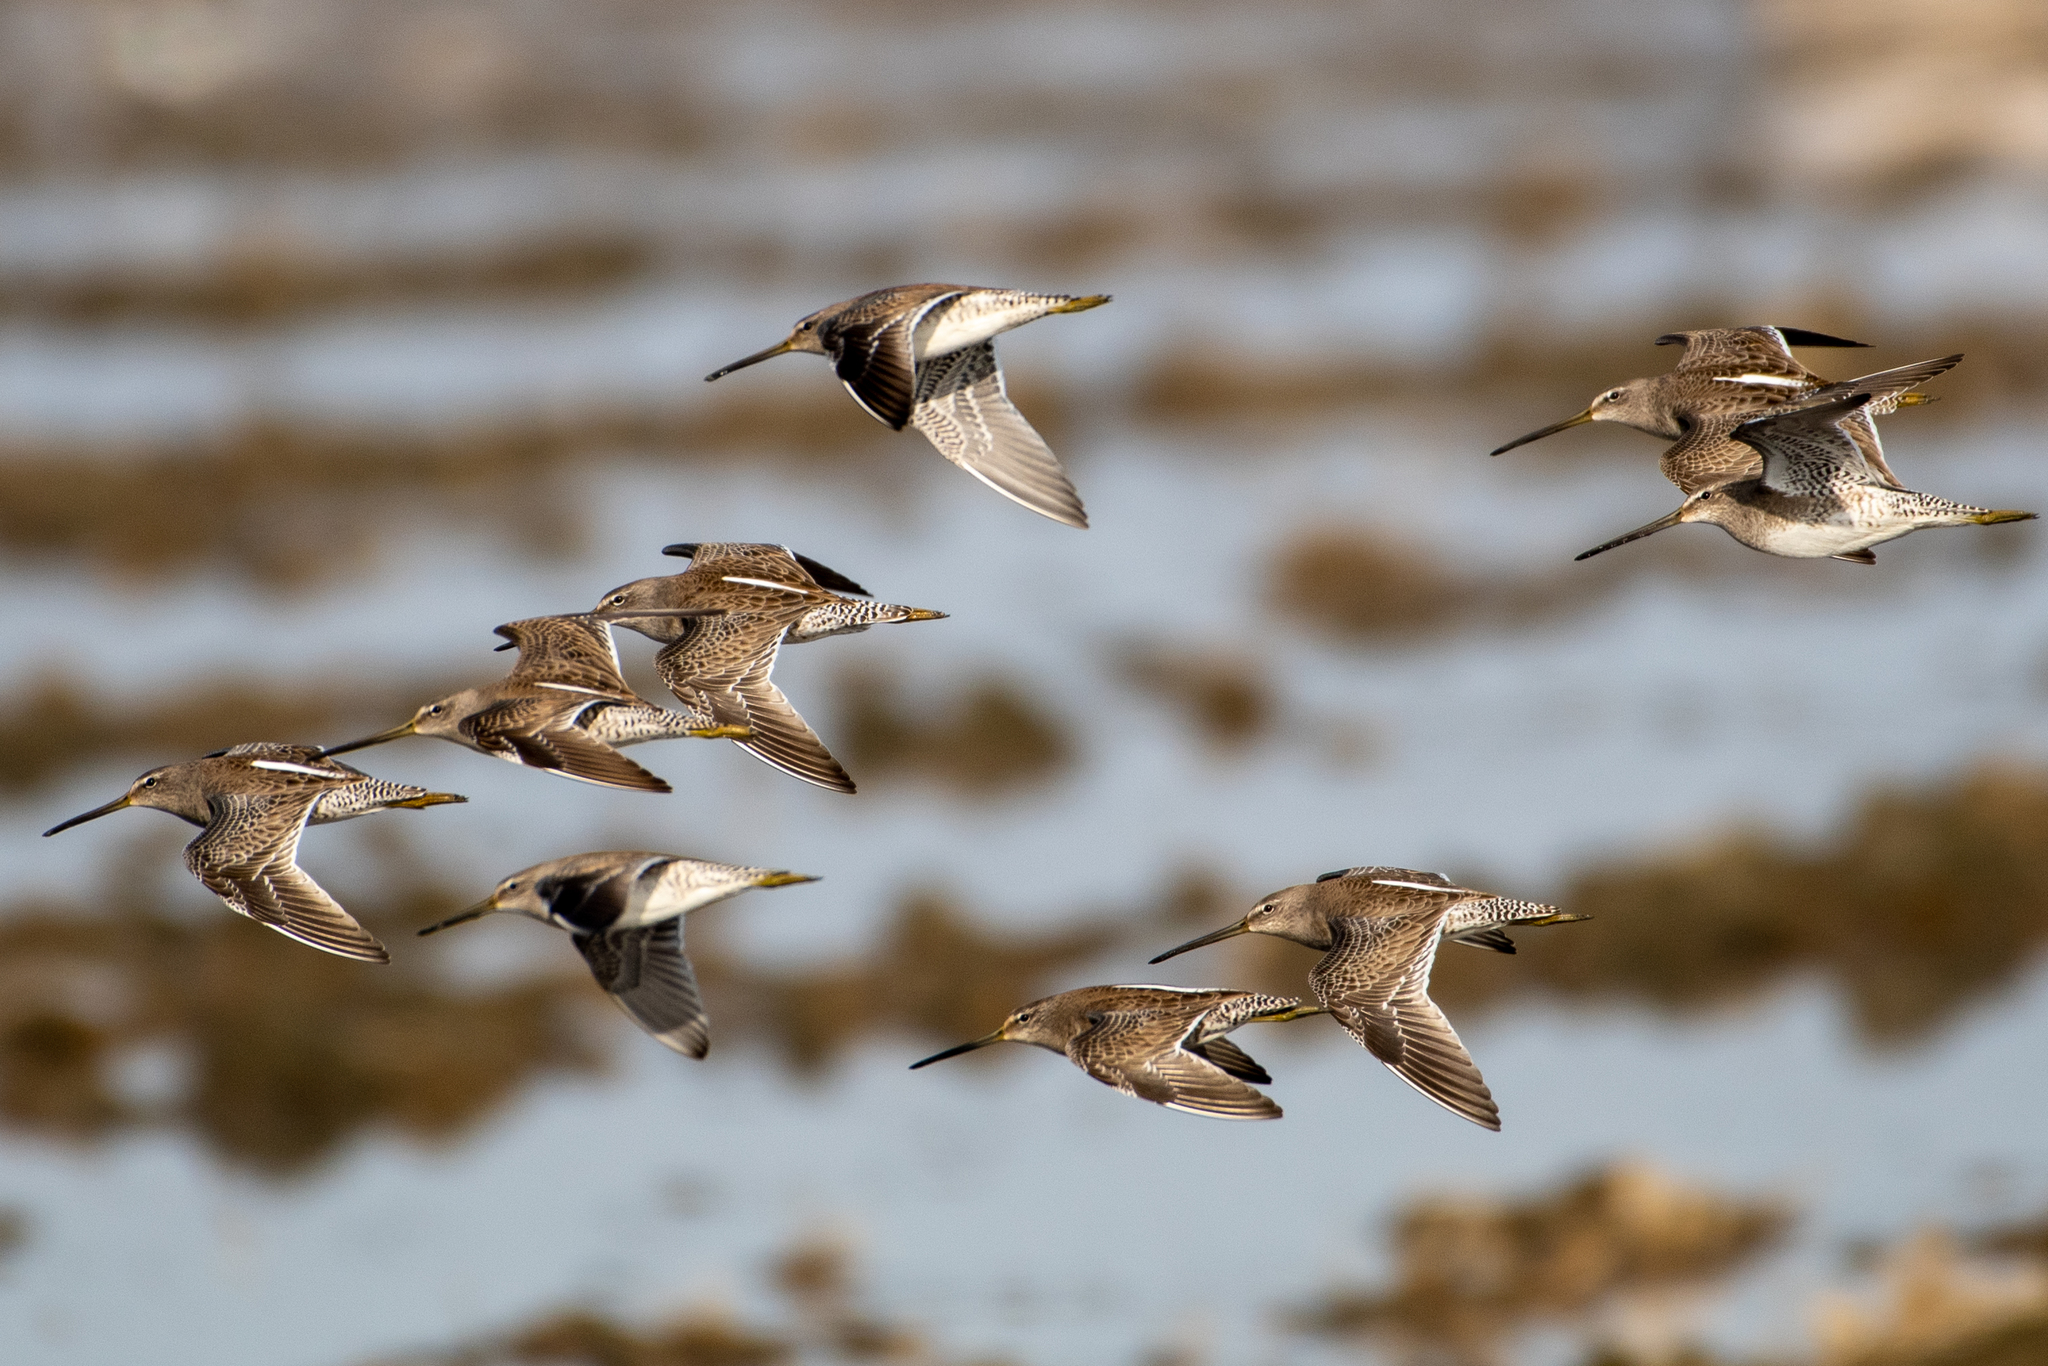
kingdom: Animalia
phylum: Chordata
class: Aves
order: Charadriiformes
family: Scolopacidae
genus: Limnodromus
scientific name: Limnodromus scolopaceus
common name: Long-billed dowitcher
